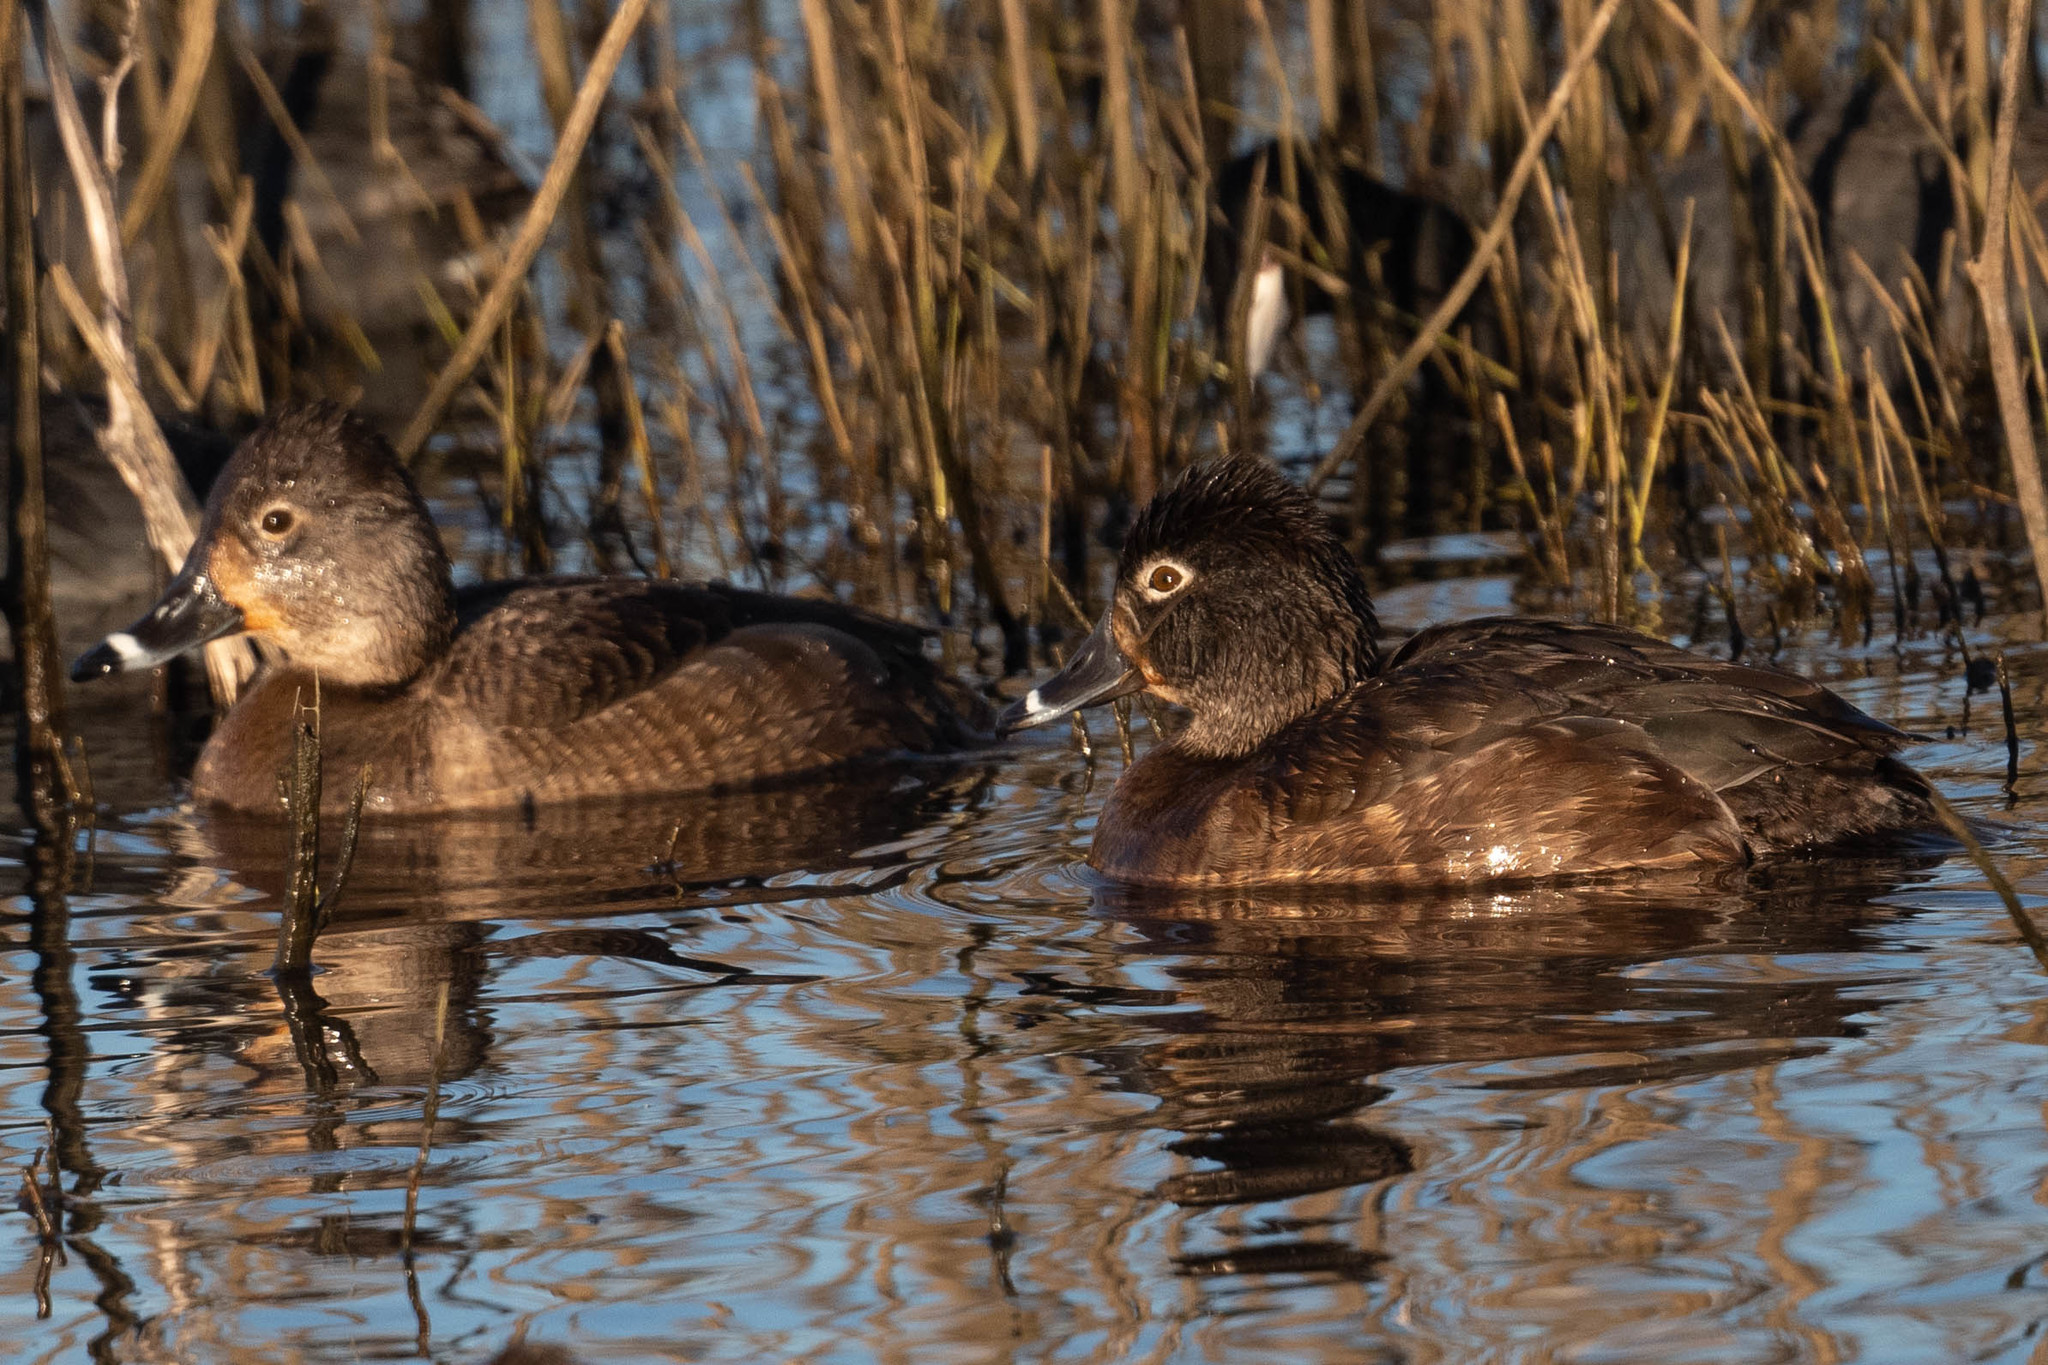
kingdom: Animalia
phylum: Chordata
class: Aves
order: Anseriformes
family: Anatidae
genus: Aythya
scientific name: Aythya collaris
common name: Ring-necked duck
